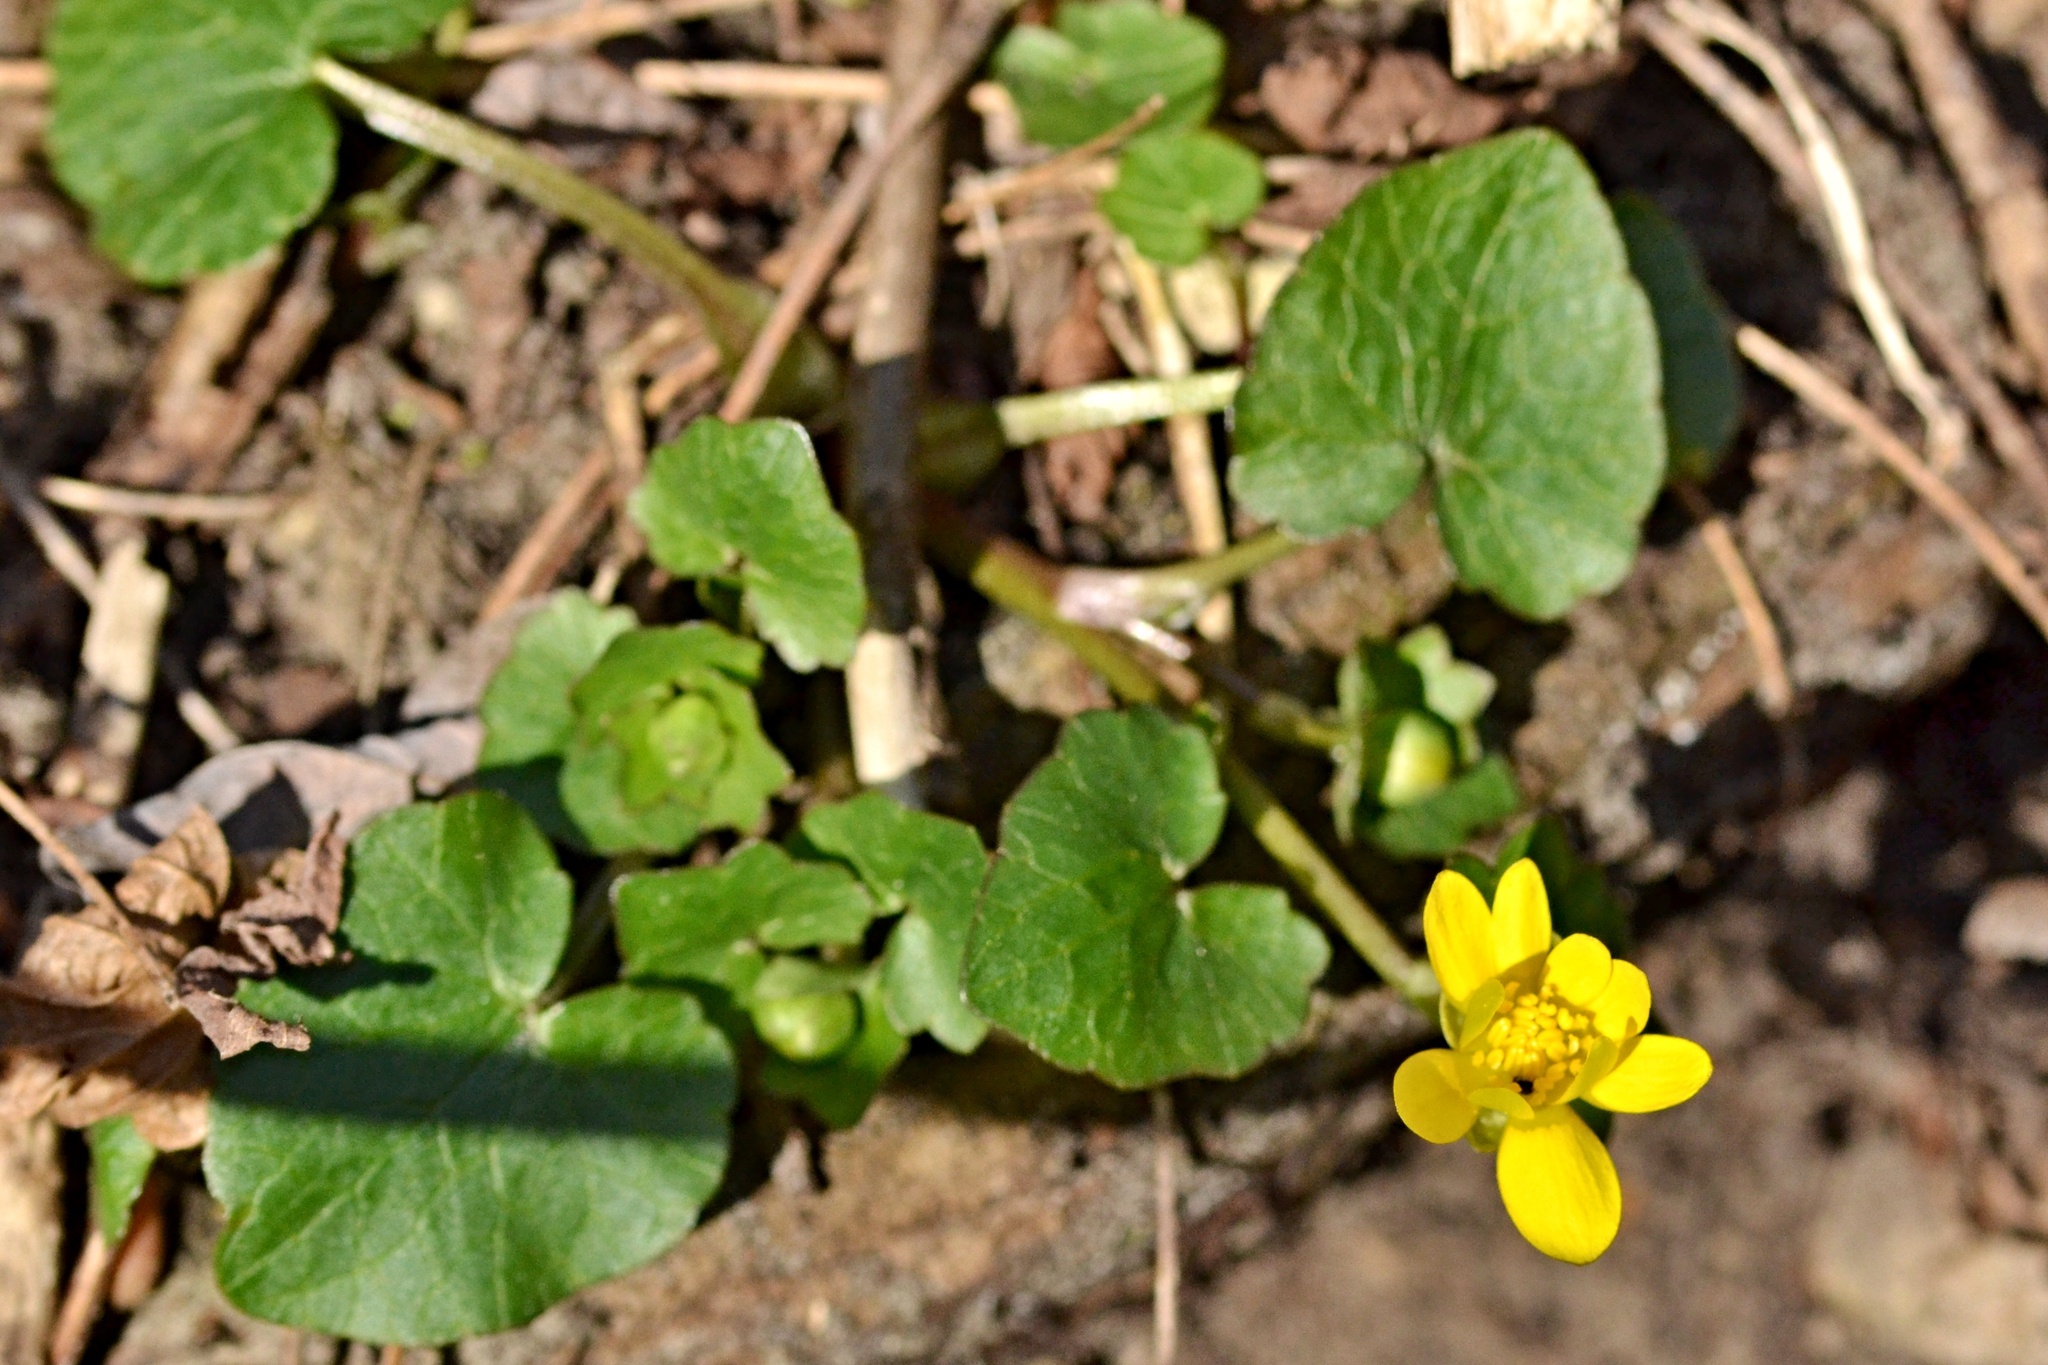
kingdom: Plantae
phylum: Tracheophyta
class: Magnoliopsida
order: Ranunculales
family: Ranunculaceae
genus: Ficaria
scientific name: Ficaria verna
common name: Lesser celandine
